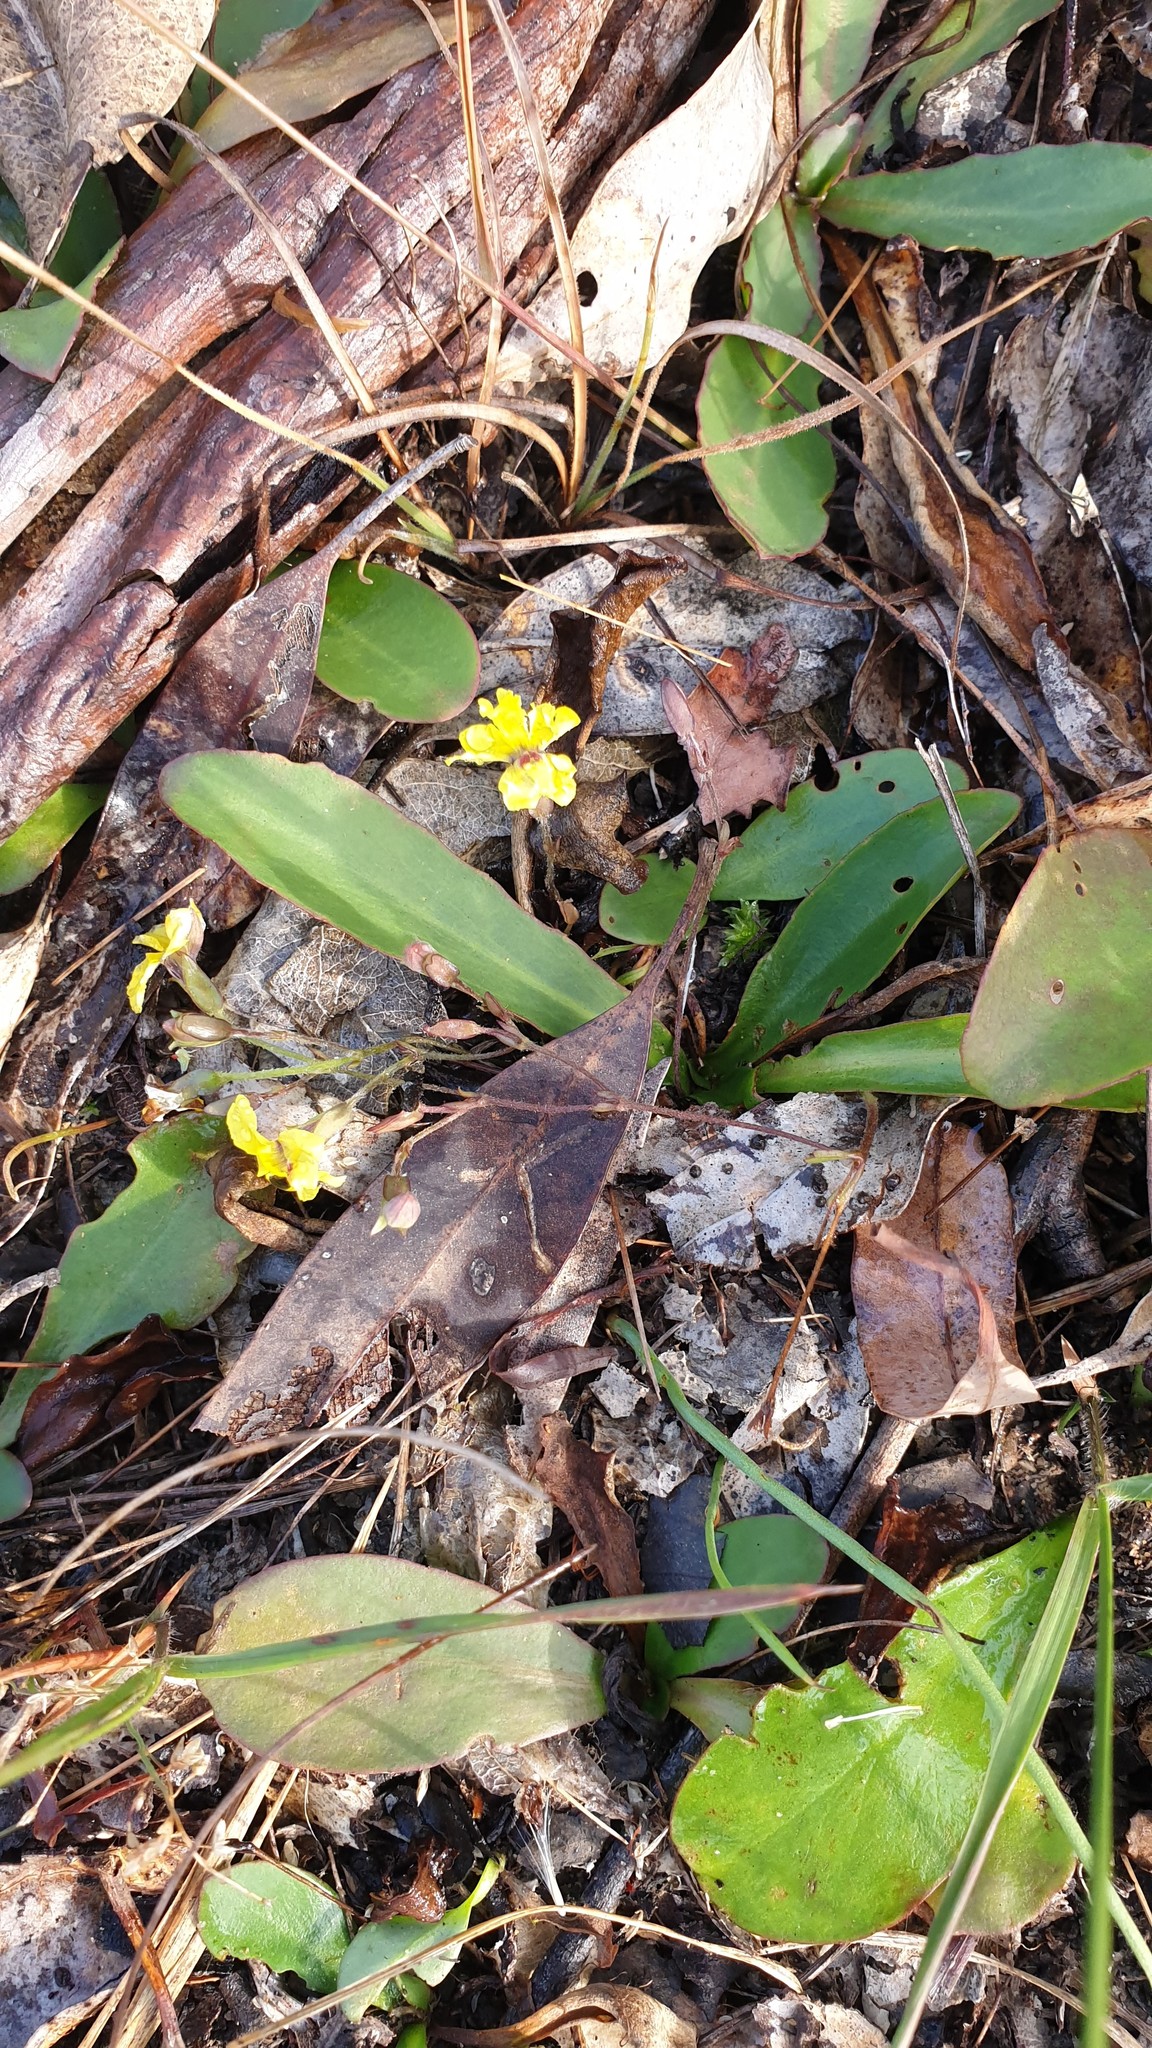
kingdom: Plantae
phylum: Tracheophyta
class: Magnoliopsida
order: Asterales
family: Goodeniaceae
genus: Goodenia
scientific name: Goodenia mystrophylla
